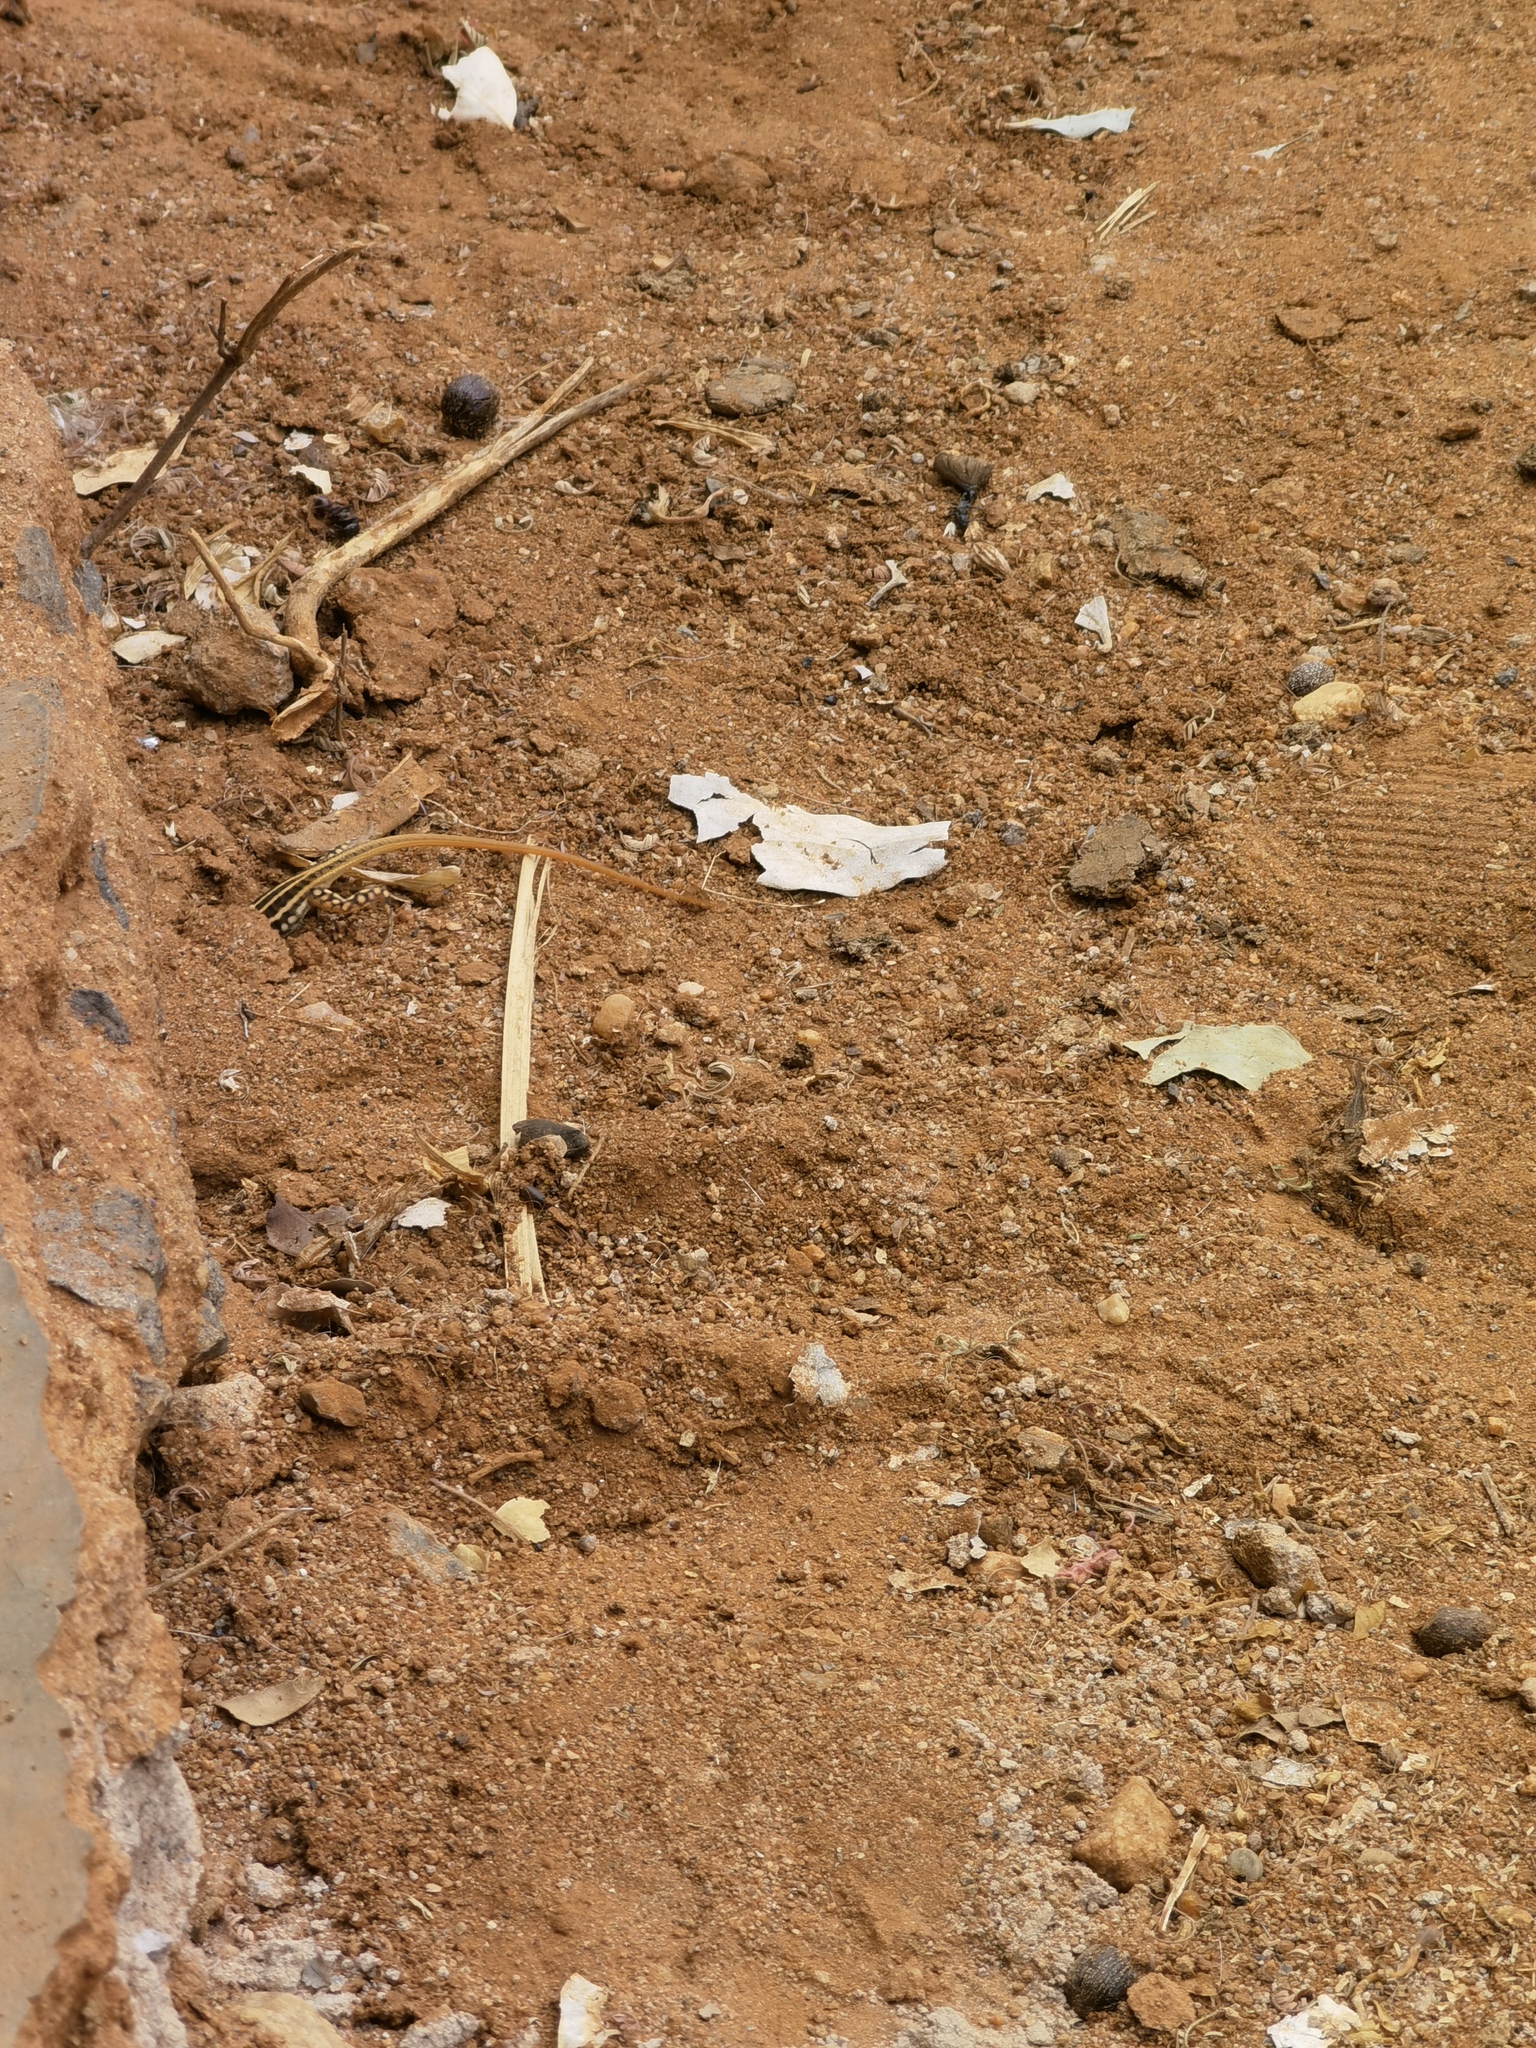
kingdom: Animalia
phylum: Chordata
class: Squamata
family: Lacertidae
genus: Heliobolus
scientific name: Heliobolus spekii
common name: Speke’s sand lizard
